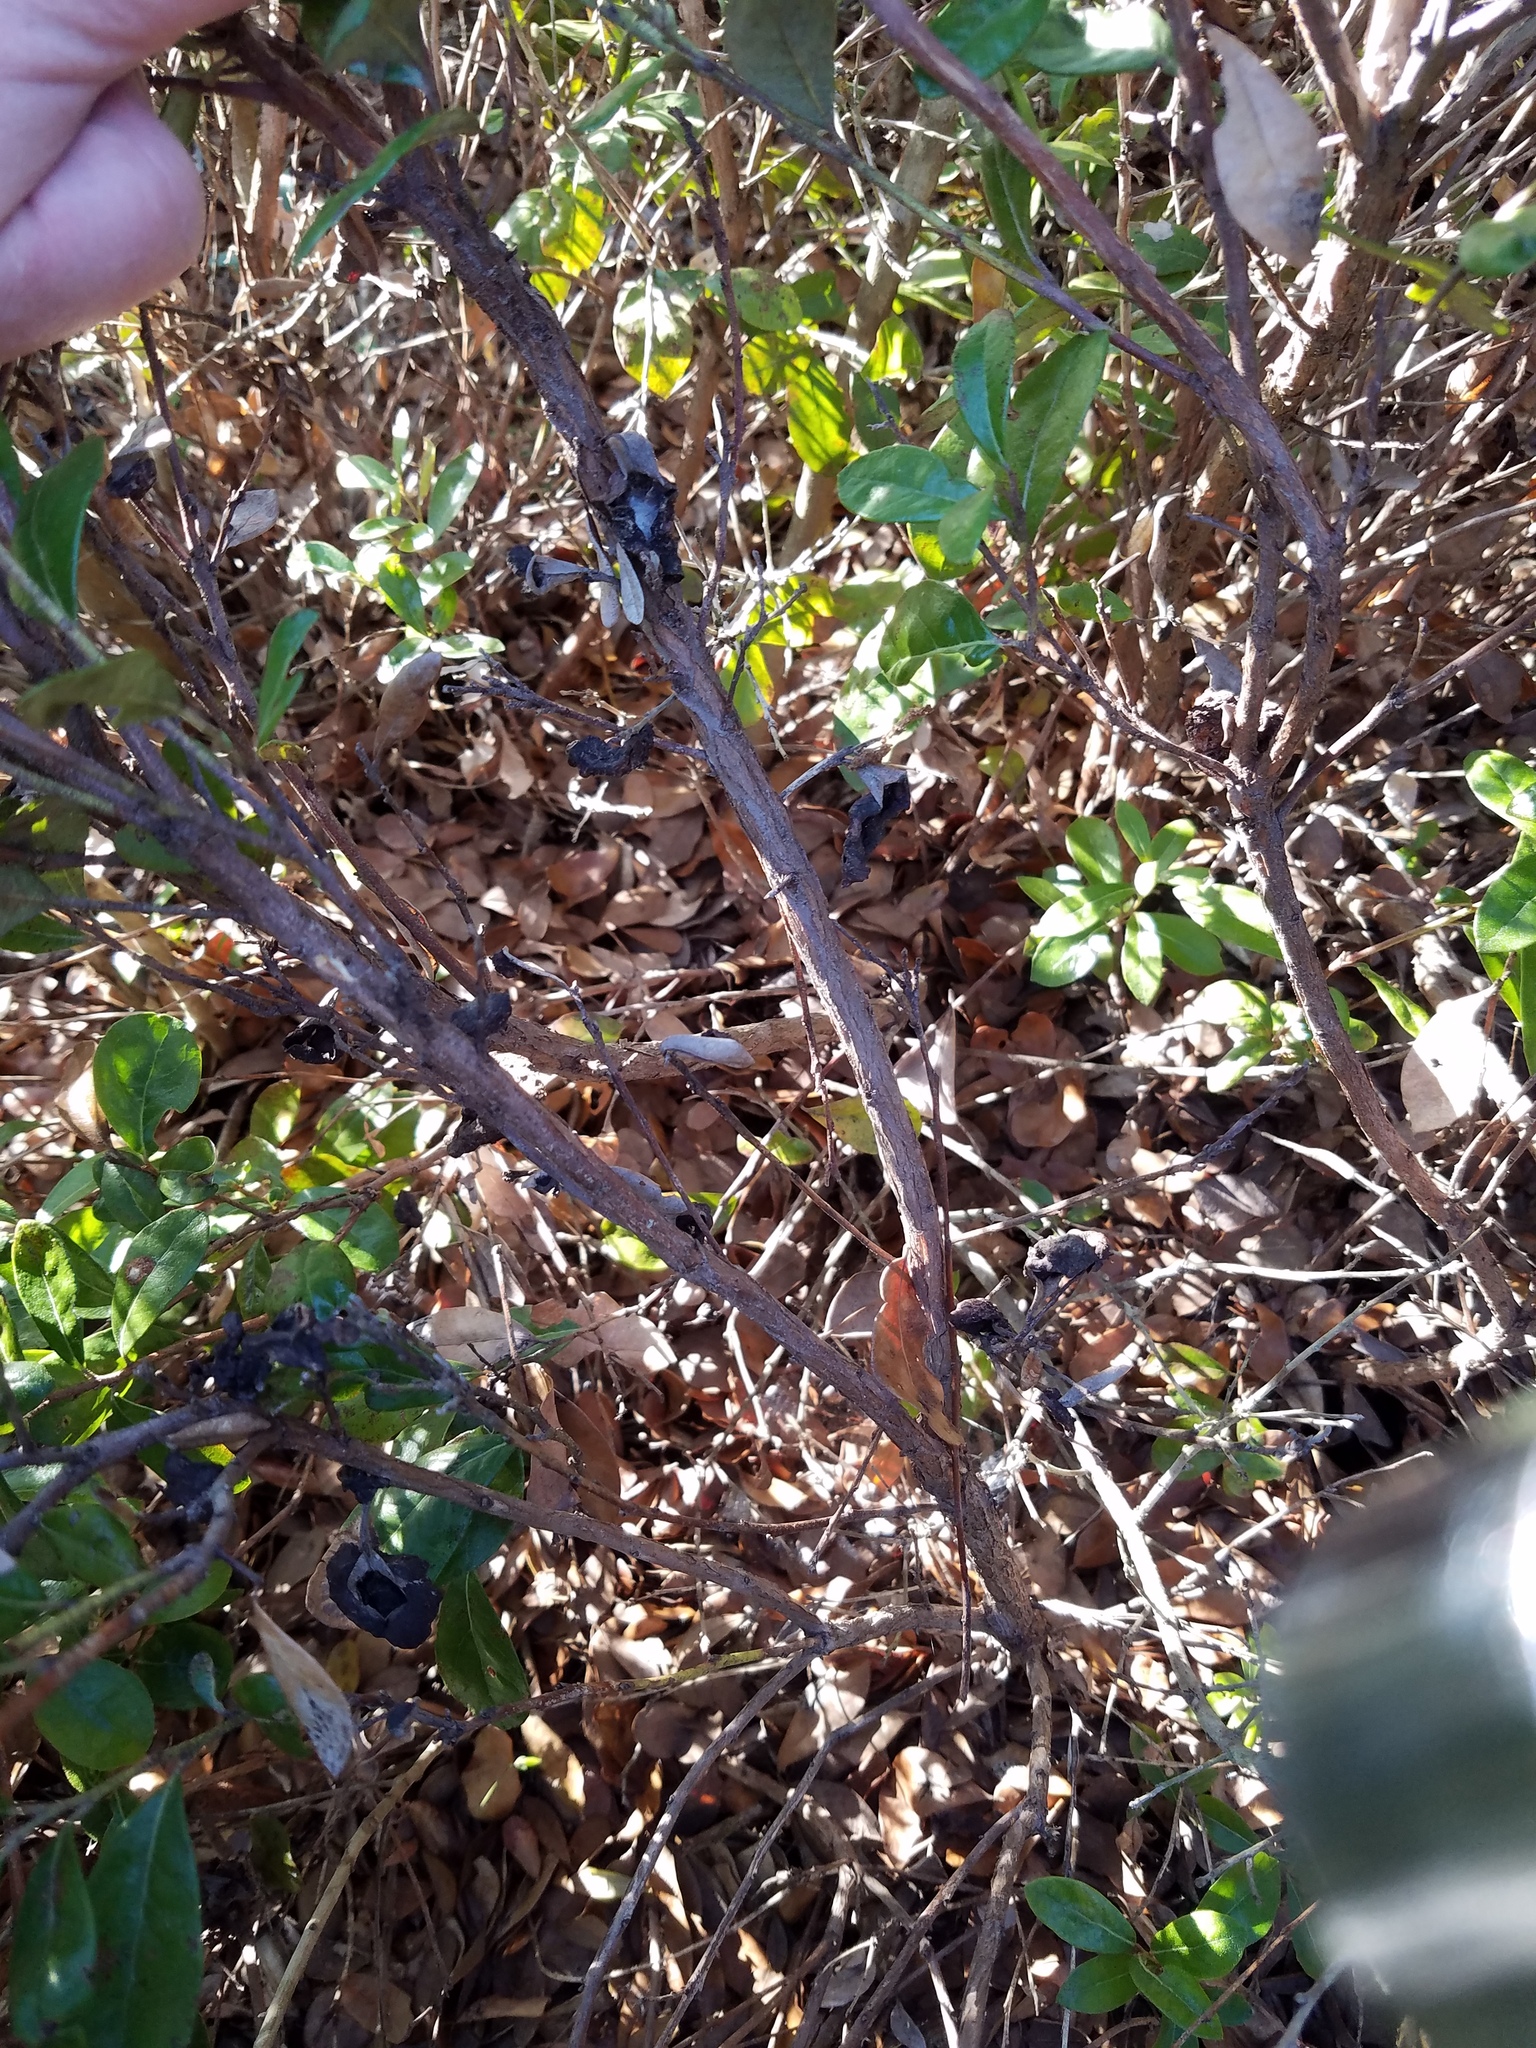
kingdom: Plantae
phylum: Tracheophyta
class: Magnoliopsida
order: Ericales
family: Ericaceae
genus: Lyonia
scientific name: Lyonia ferruginea
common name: Rusty lyonia
